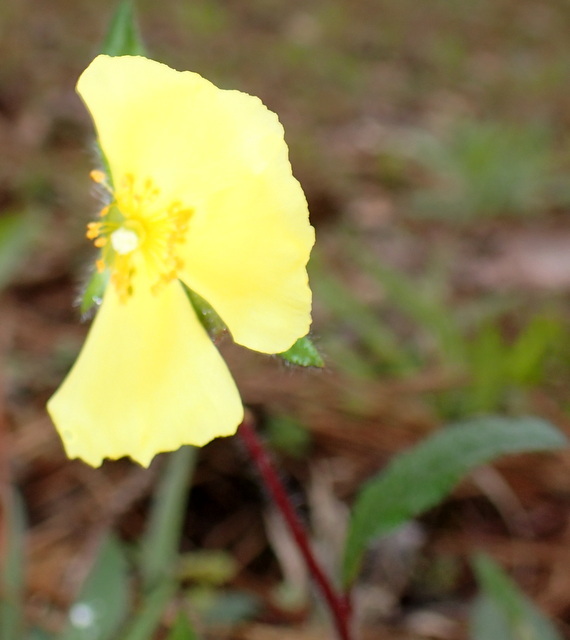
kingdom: Plantae
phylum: Tracheophyta
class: Magnoliopsida
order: Malvales
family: Cistaceae
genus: Crocanthemum
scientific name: Crocanthemum carolinianum
